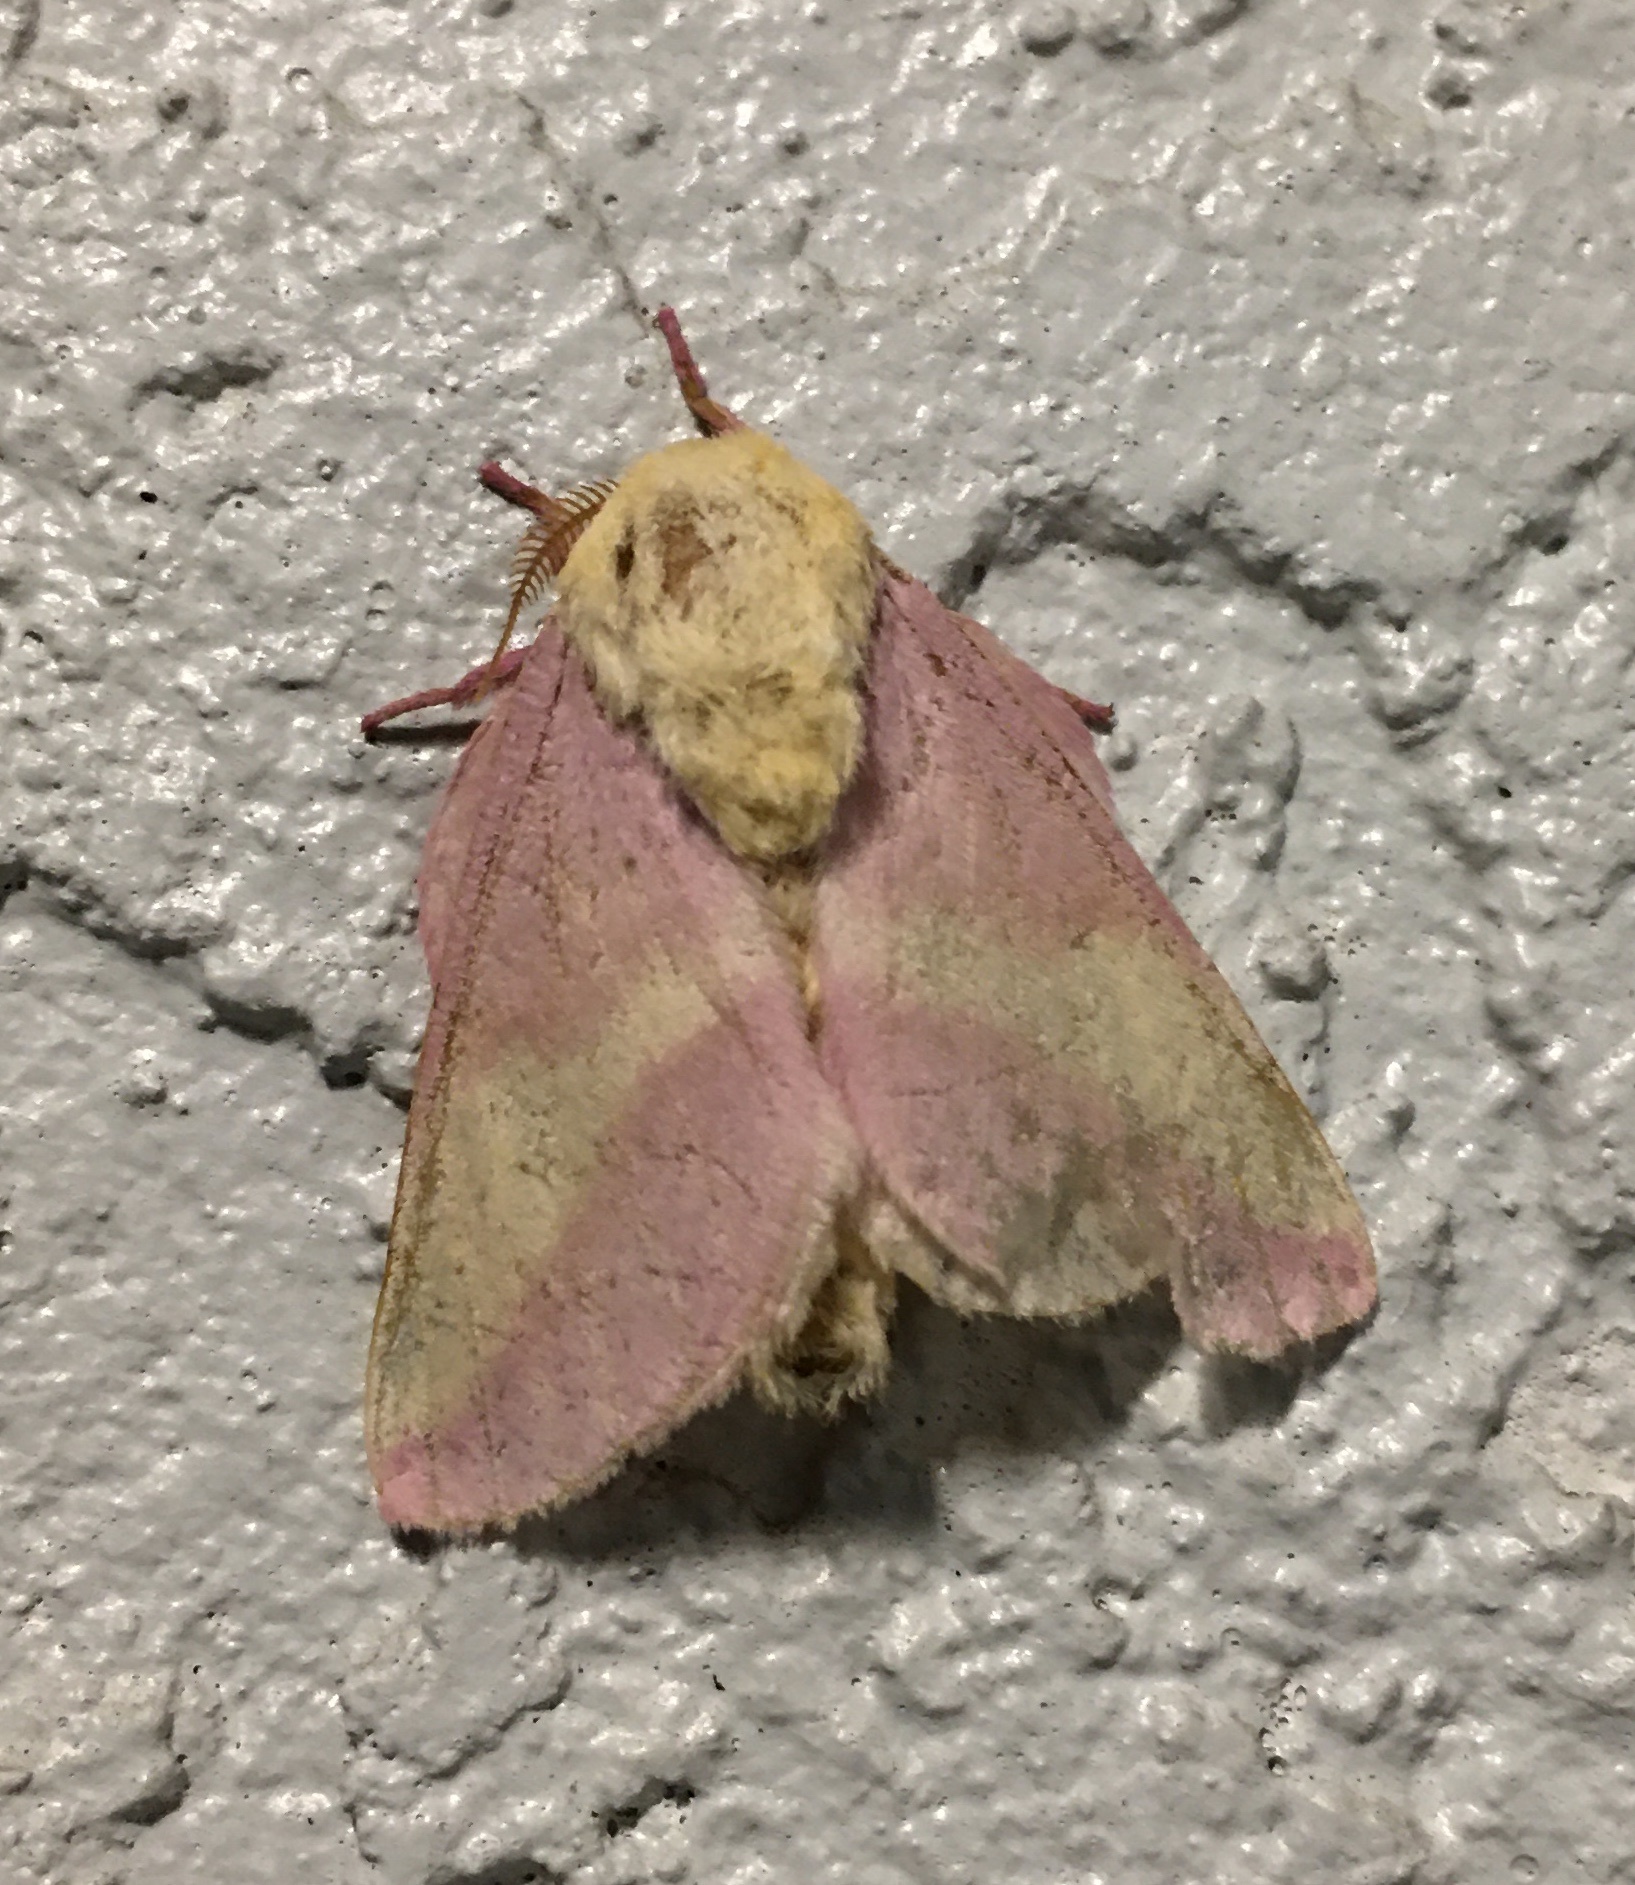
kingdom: Animalia
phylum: Arthropoda
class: Insecta
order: Lepidoptera
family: Saturniidae
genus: Dryocampa
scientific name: Dryocampa rubicunda
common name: Rosy maple moth
